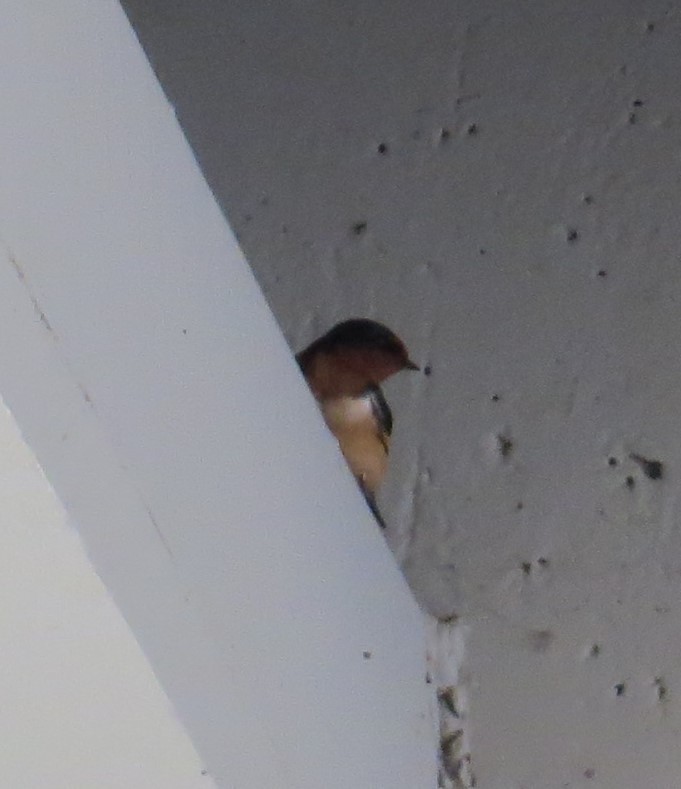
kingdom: Animalia
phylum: Chordata
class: Aves
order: Passeriformes
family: Hirundinidae
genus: Hirundo
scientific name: Hirundo rustica
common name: Barn swallow
